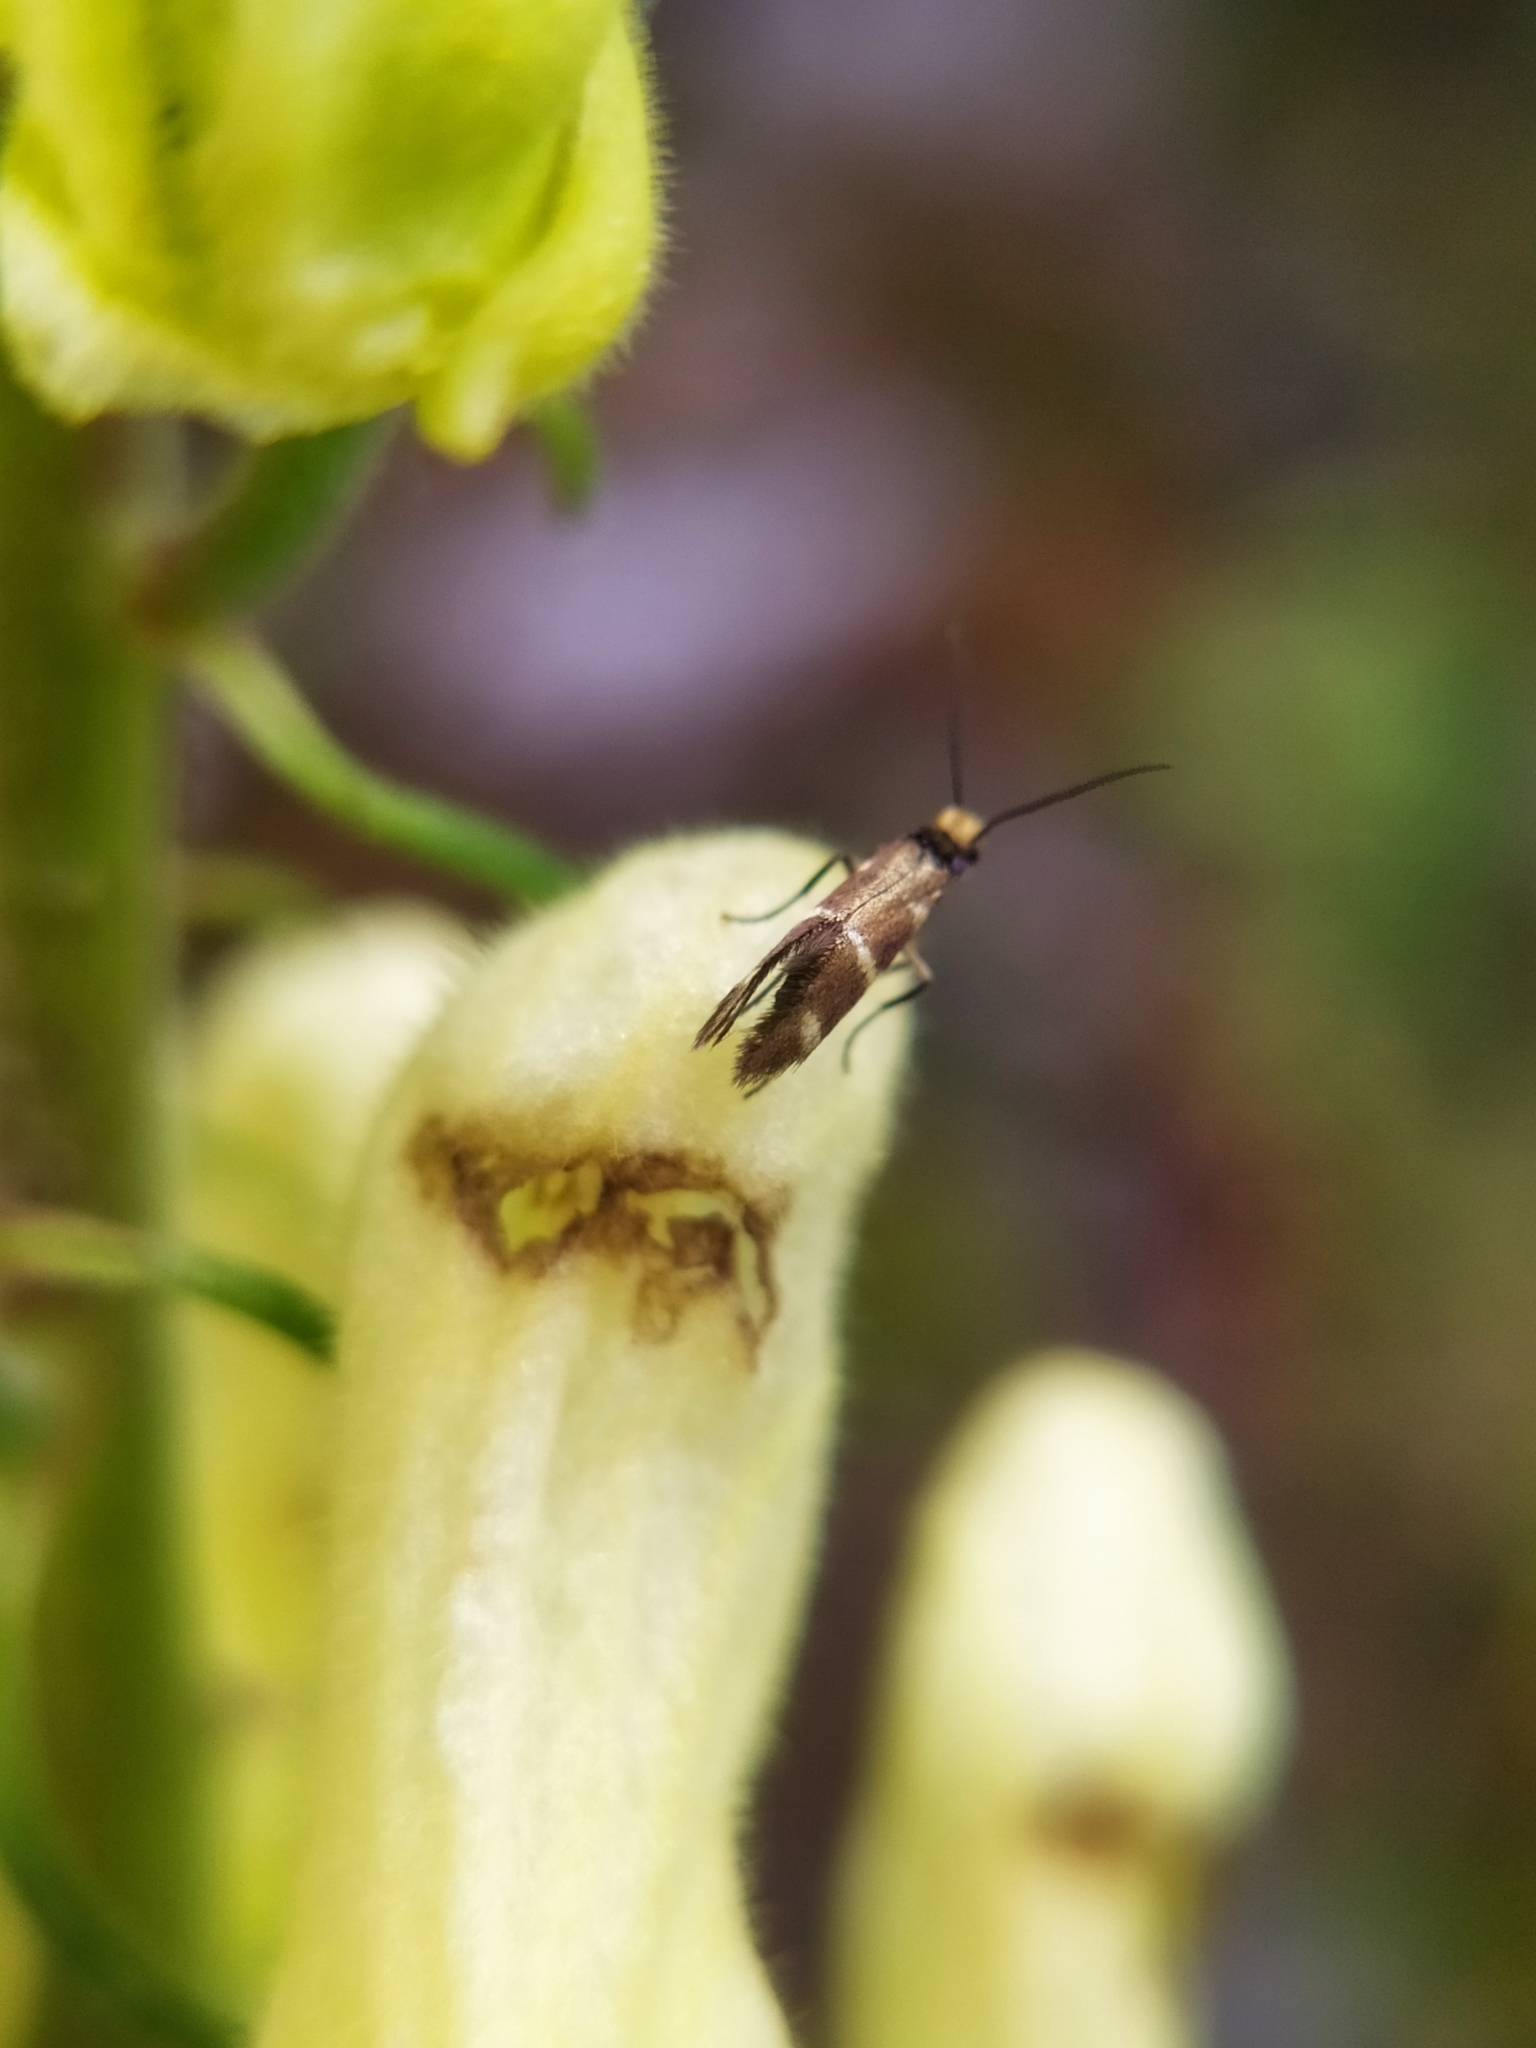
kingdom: Animalia
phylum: Arthropoda
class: Insecta
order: Lepidoptera
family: Micropterigidae
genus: Micropterix
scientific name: Micropterix aruncella
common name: White-barred gold
